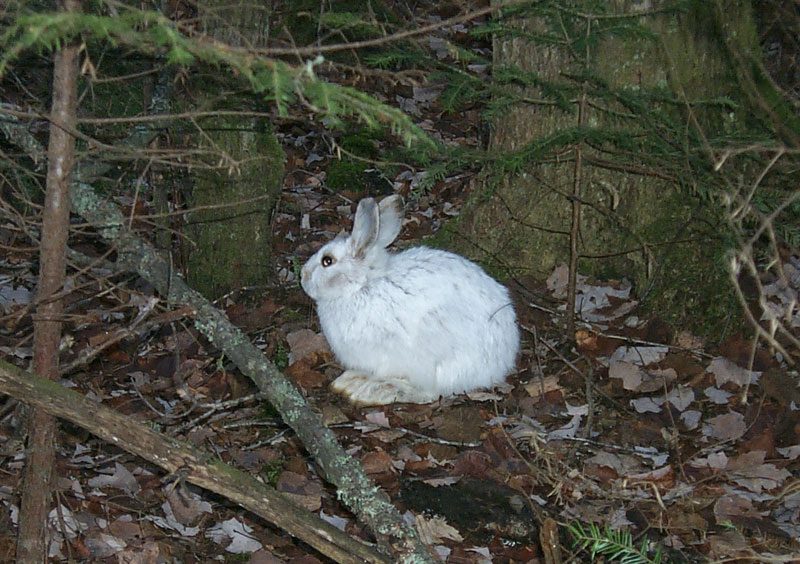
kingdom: Animalia
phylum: Chordata
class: Mammalia
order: Lagomorpha
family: Leporidae
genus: Lepus
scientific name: Lepus americanus
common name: Snowshoe hare
